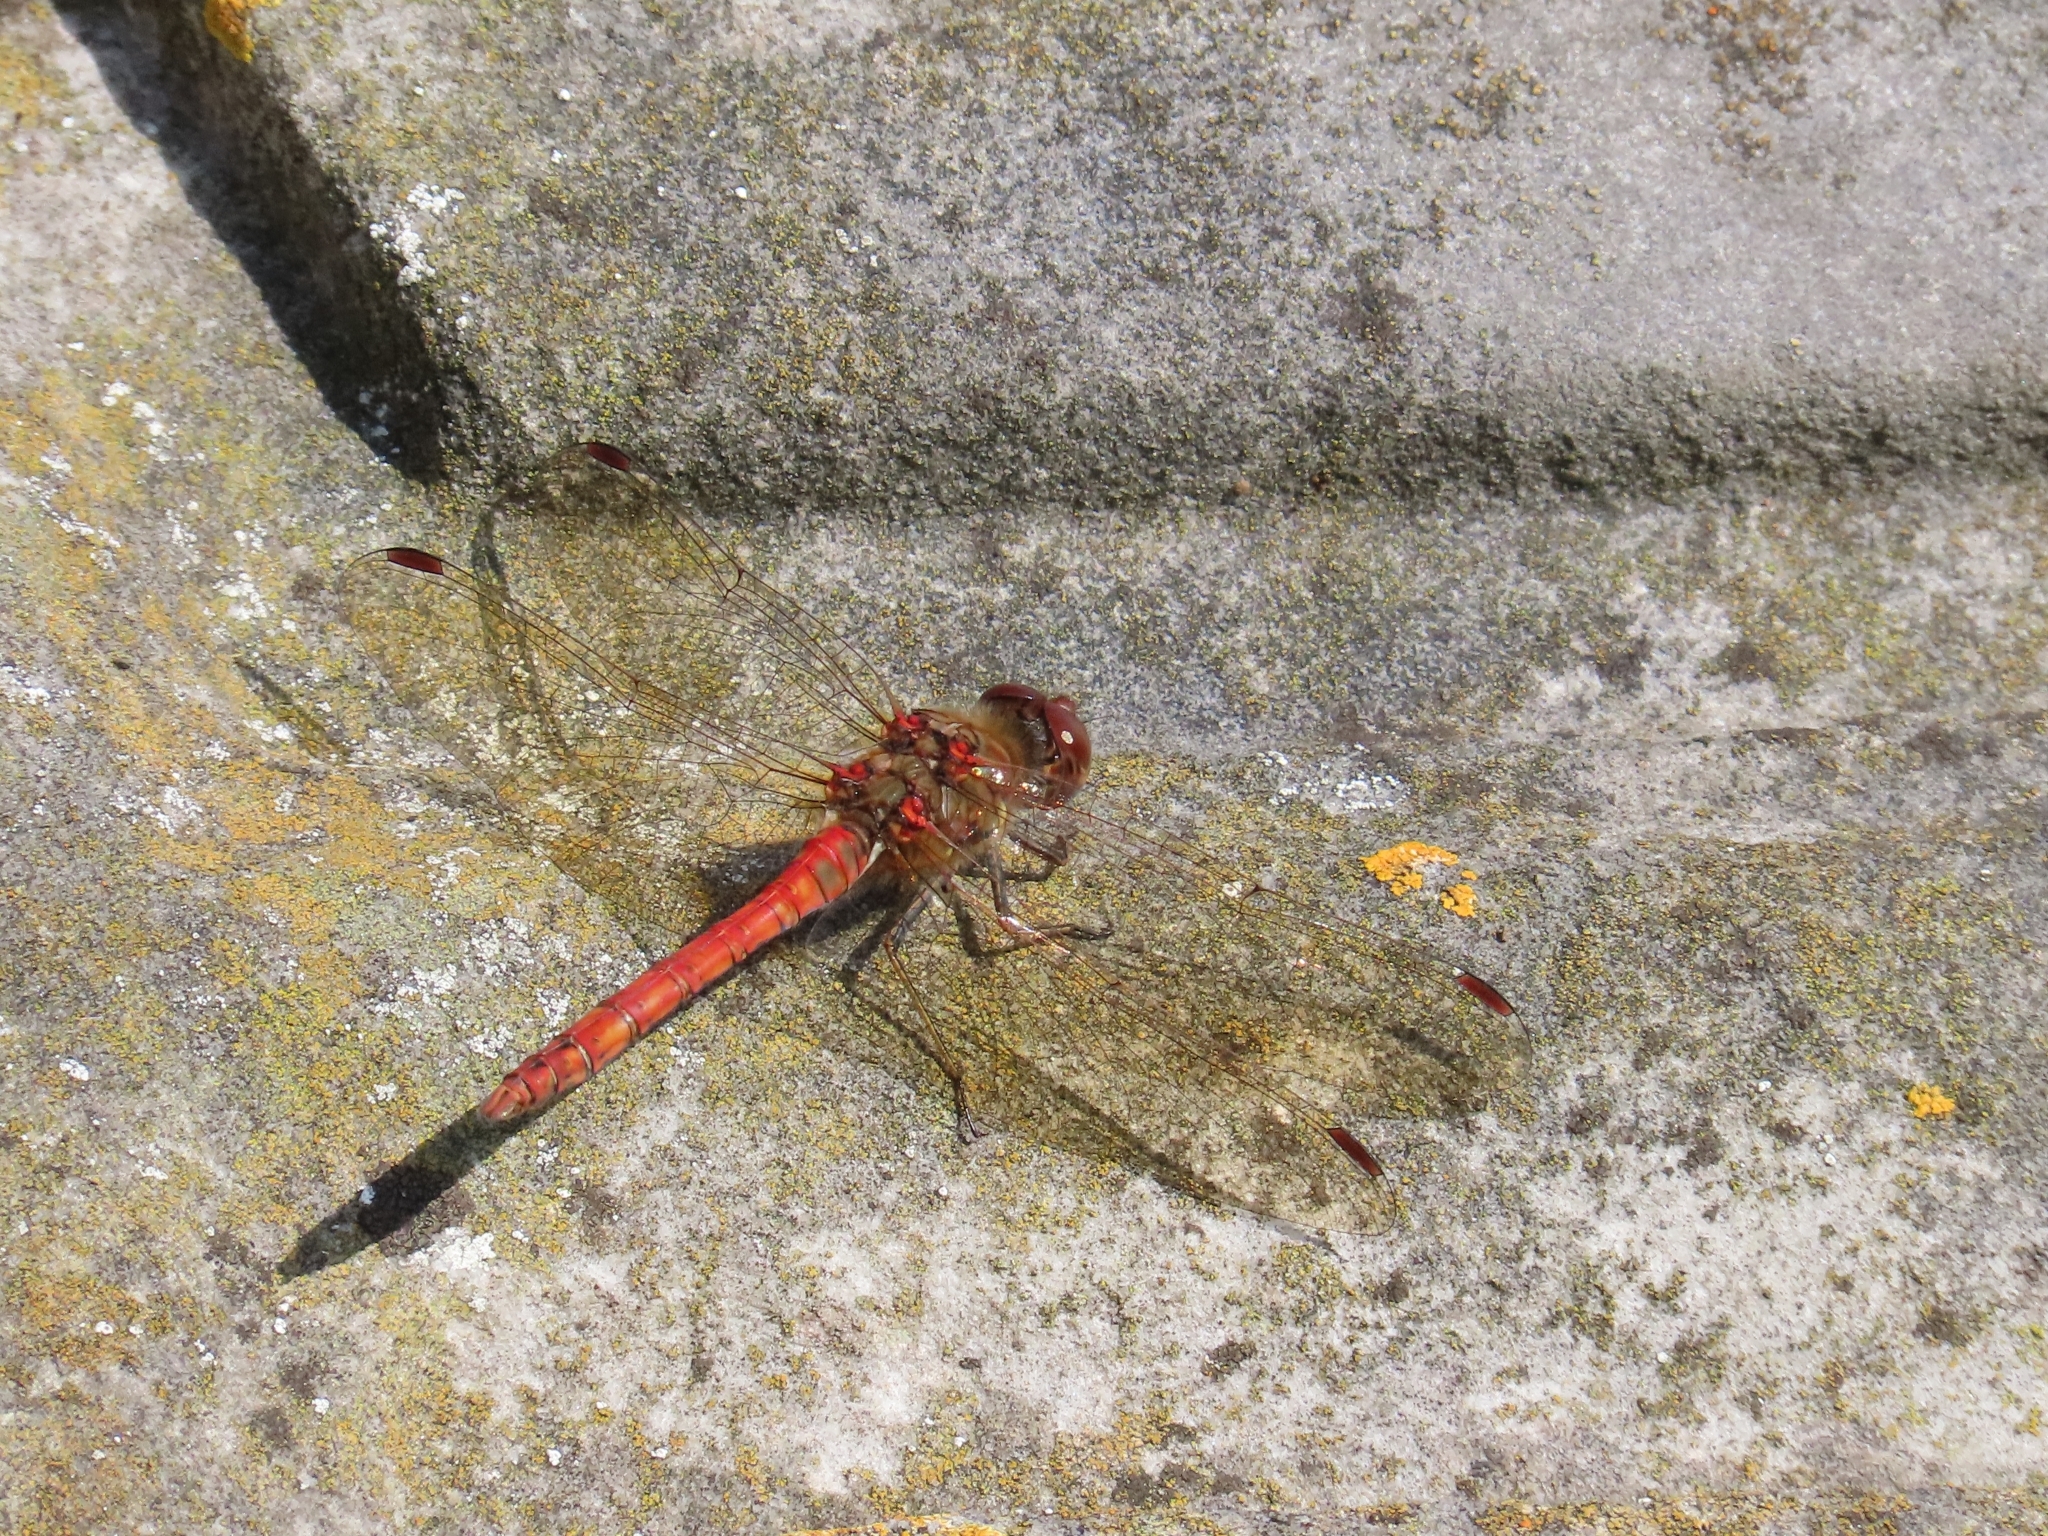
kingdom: Animalia
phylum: Arthropoda
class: Insecta
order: Odonata
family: Libellulidae
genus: Sympetrum
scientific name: Sympetrum striolatum
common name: Common darter
